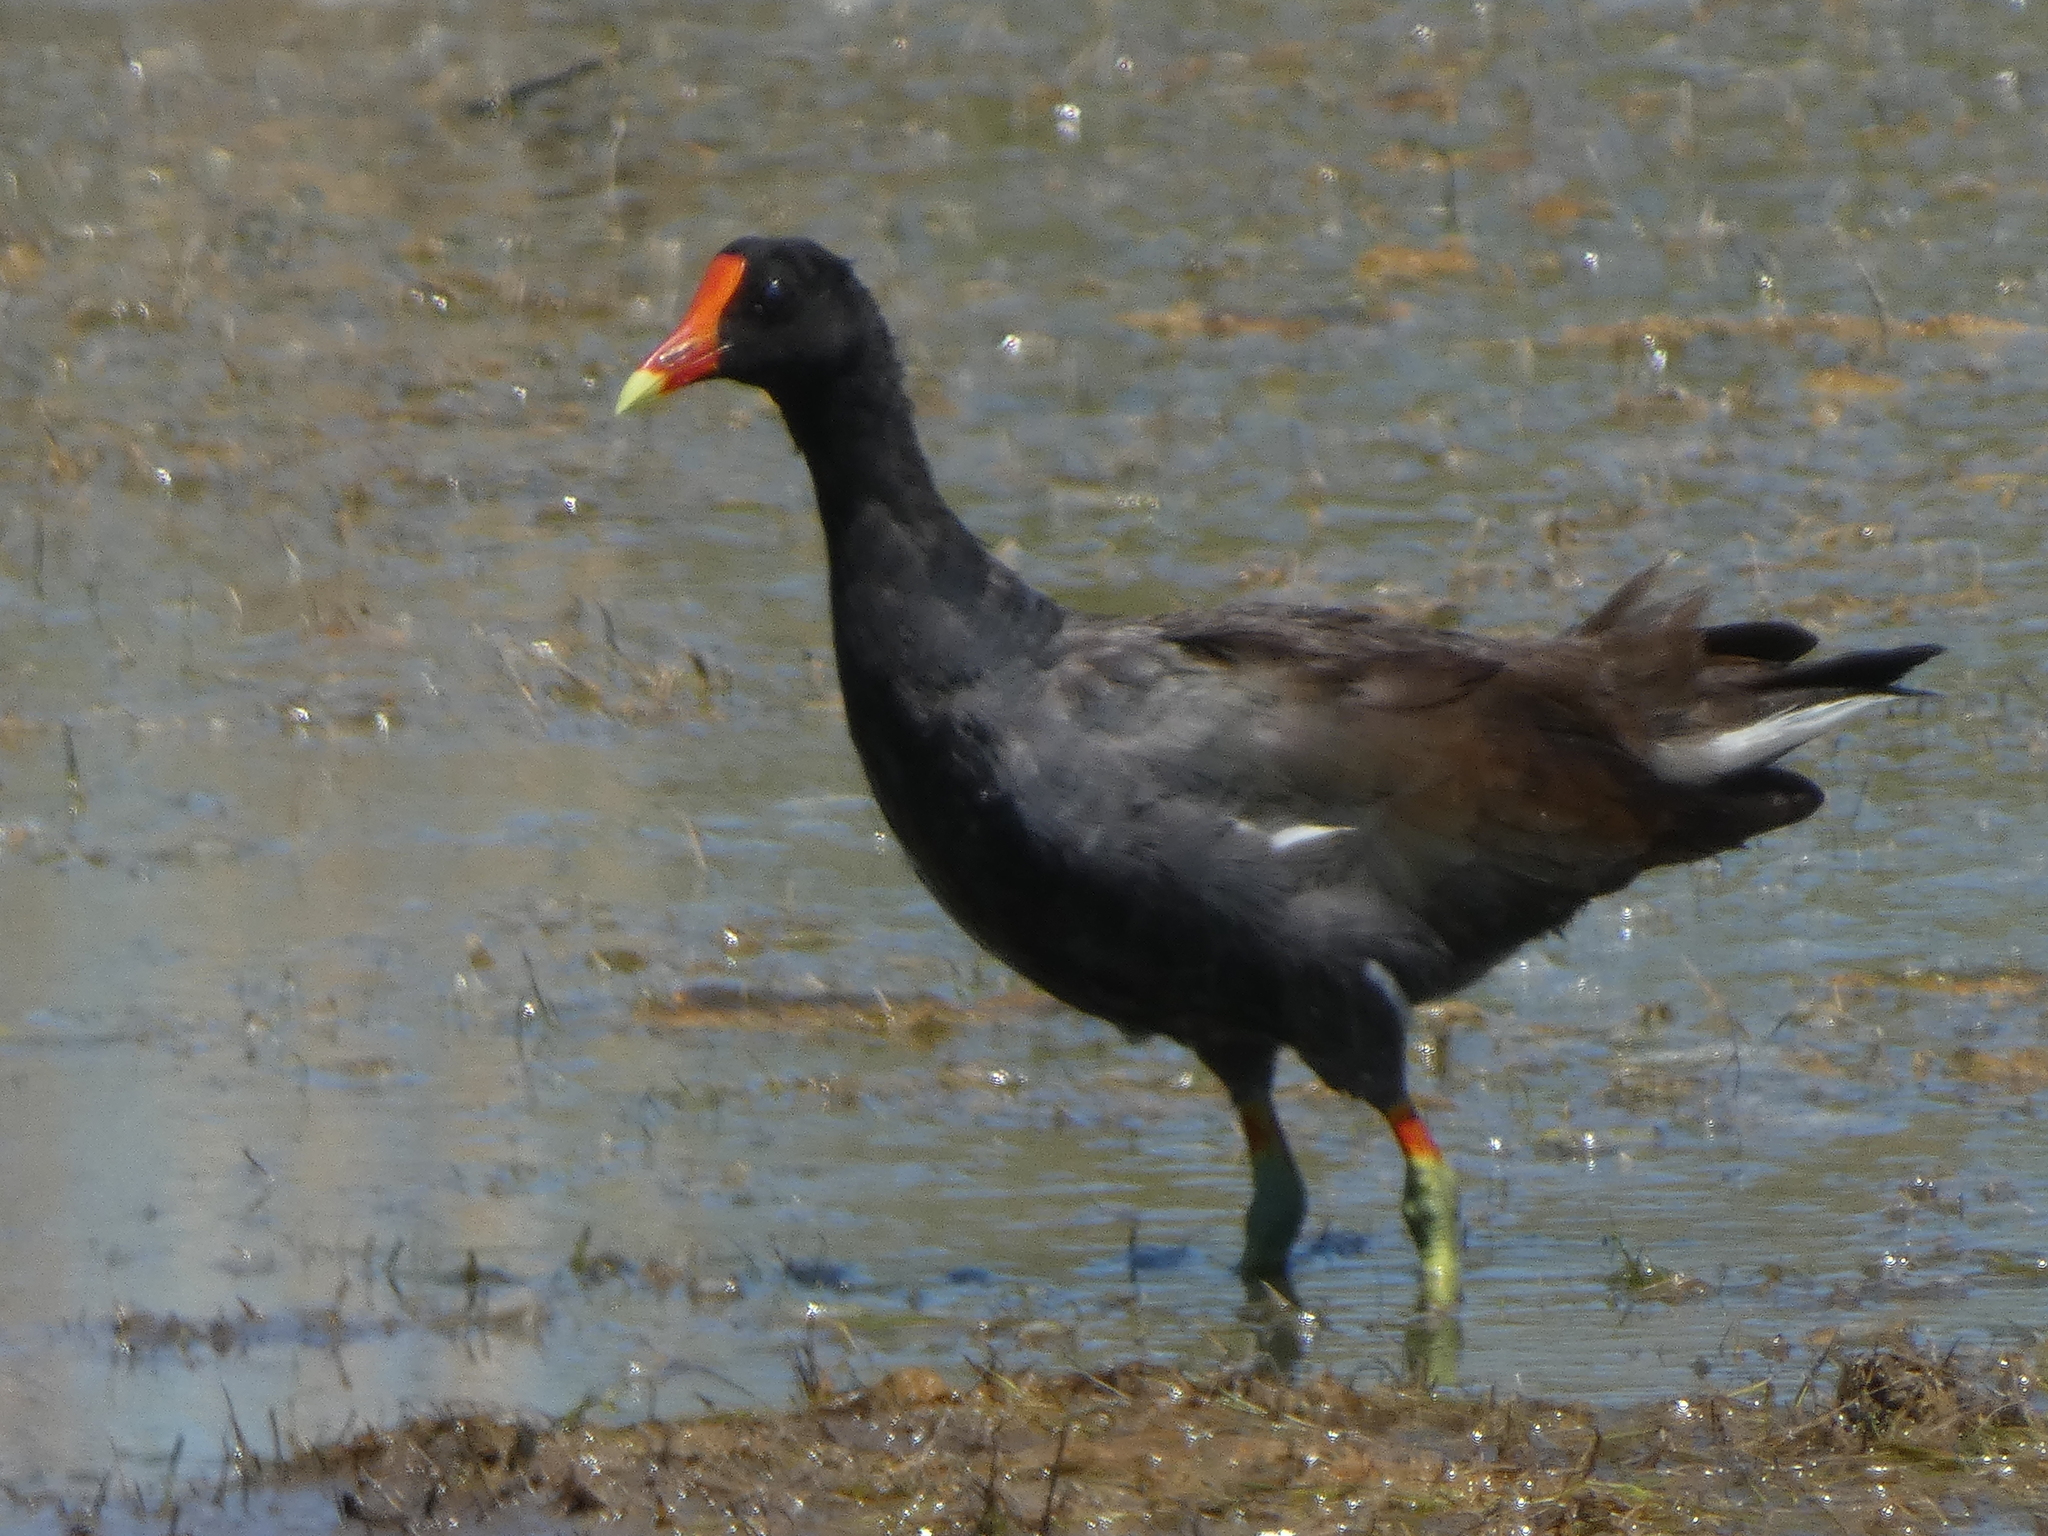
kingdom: Animalia
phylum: Chordata
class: Aves
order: Gruiformes
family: Rallidae
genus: Gallinula
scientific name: Gallinula chloropus
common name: Common moorhen
